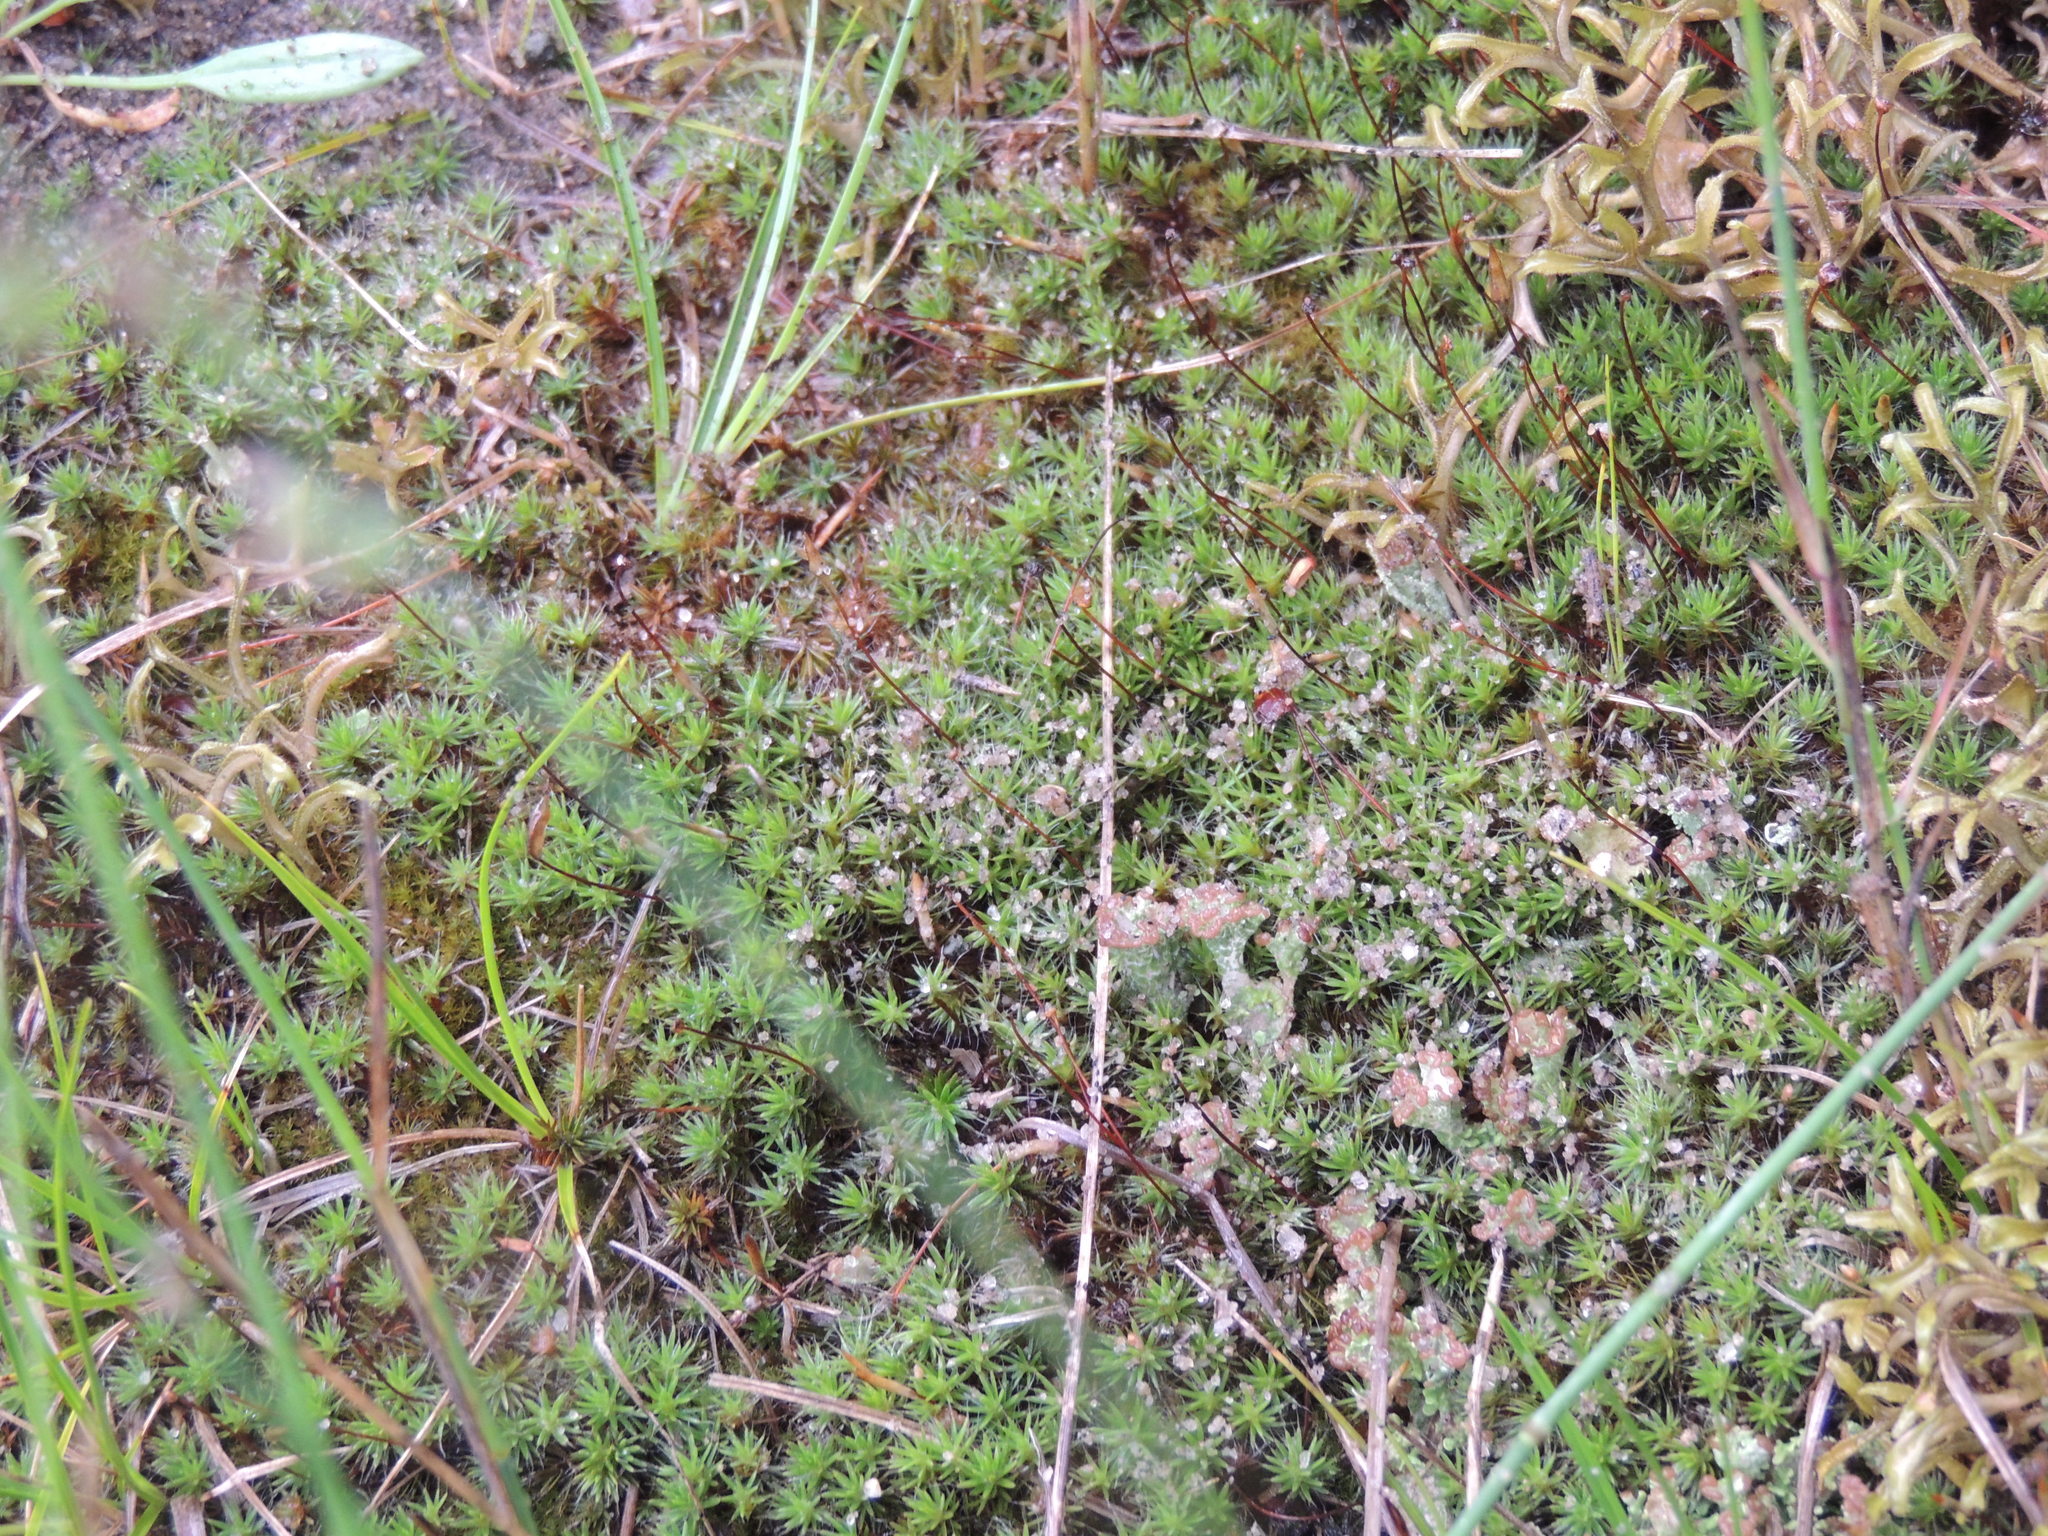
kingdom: Plantae
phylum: Bryophyta
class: Polytrichopsida
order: Polytrichales
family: Polytrichaceae
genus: Polytrichum
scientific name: Polytrichum piliferum
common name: Bristly haircap
